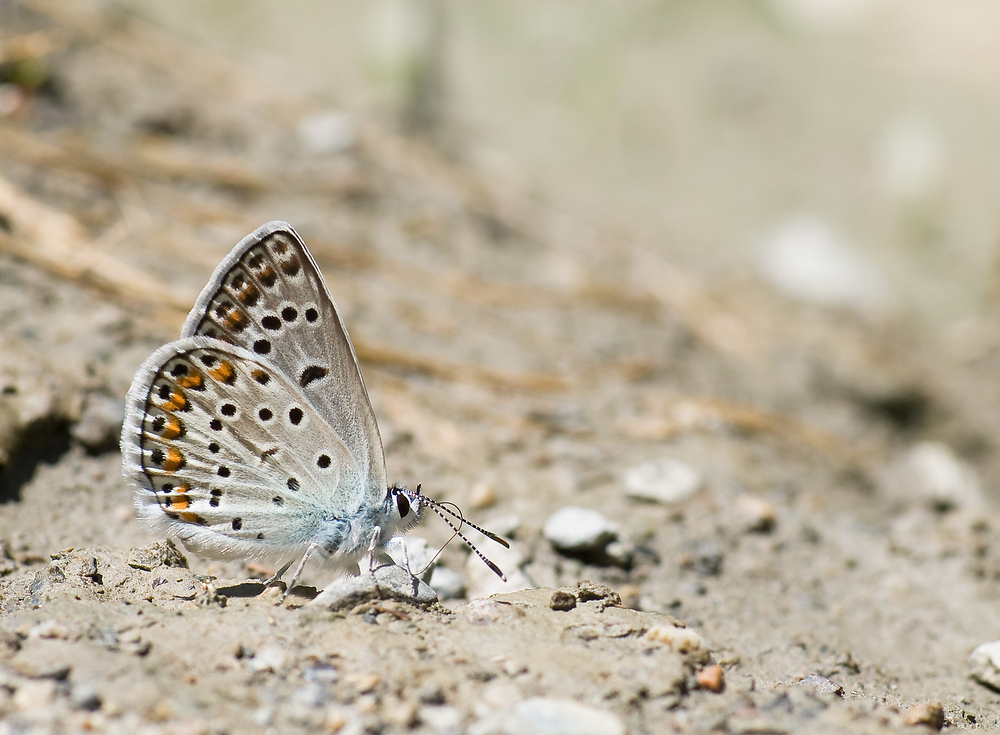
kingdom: Animalia
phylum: Arthropoda
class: Insecta
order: Lepidoptera
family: Lycaenidae
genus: Plebicula
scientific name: Plebicula escheri
